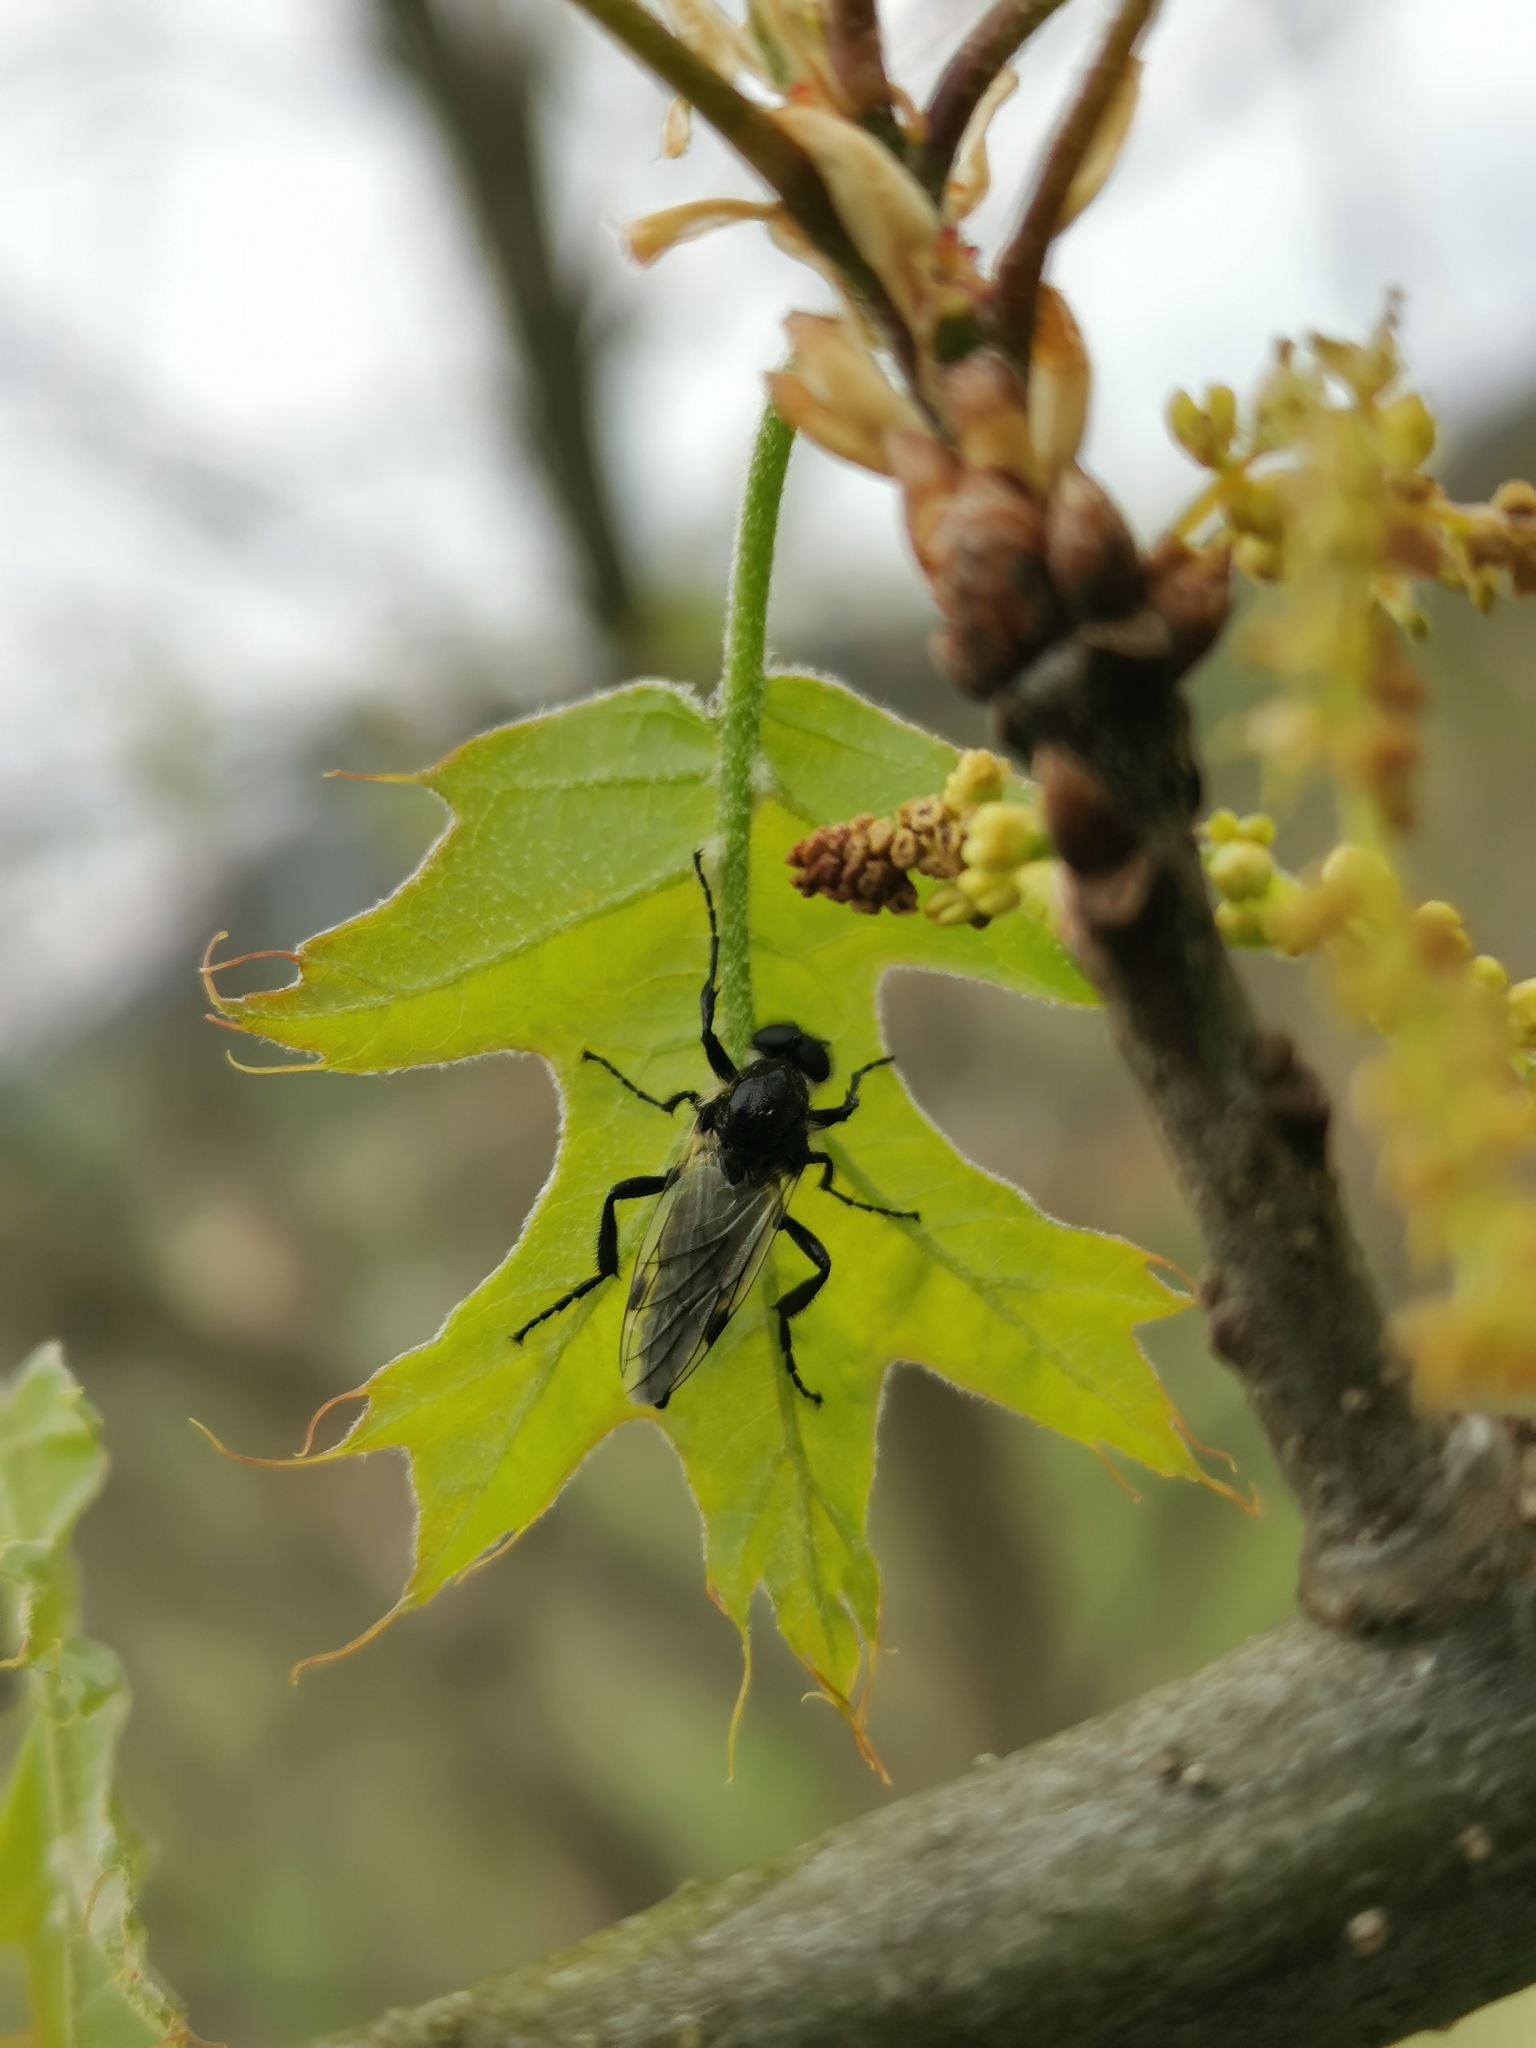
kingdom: Animalia
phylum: Arthropoda
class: Insecta
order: Diptera
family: Bibionidae
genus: Bibio
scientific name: Bibio albipennis
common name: White-winged march fly
